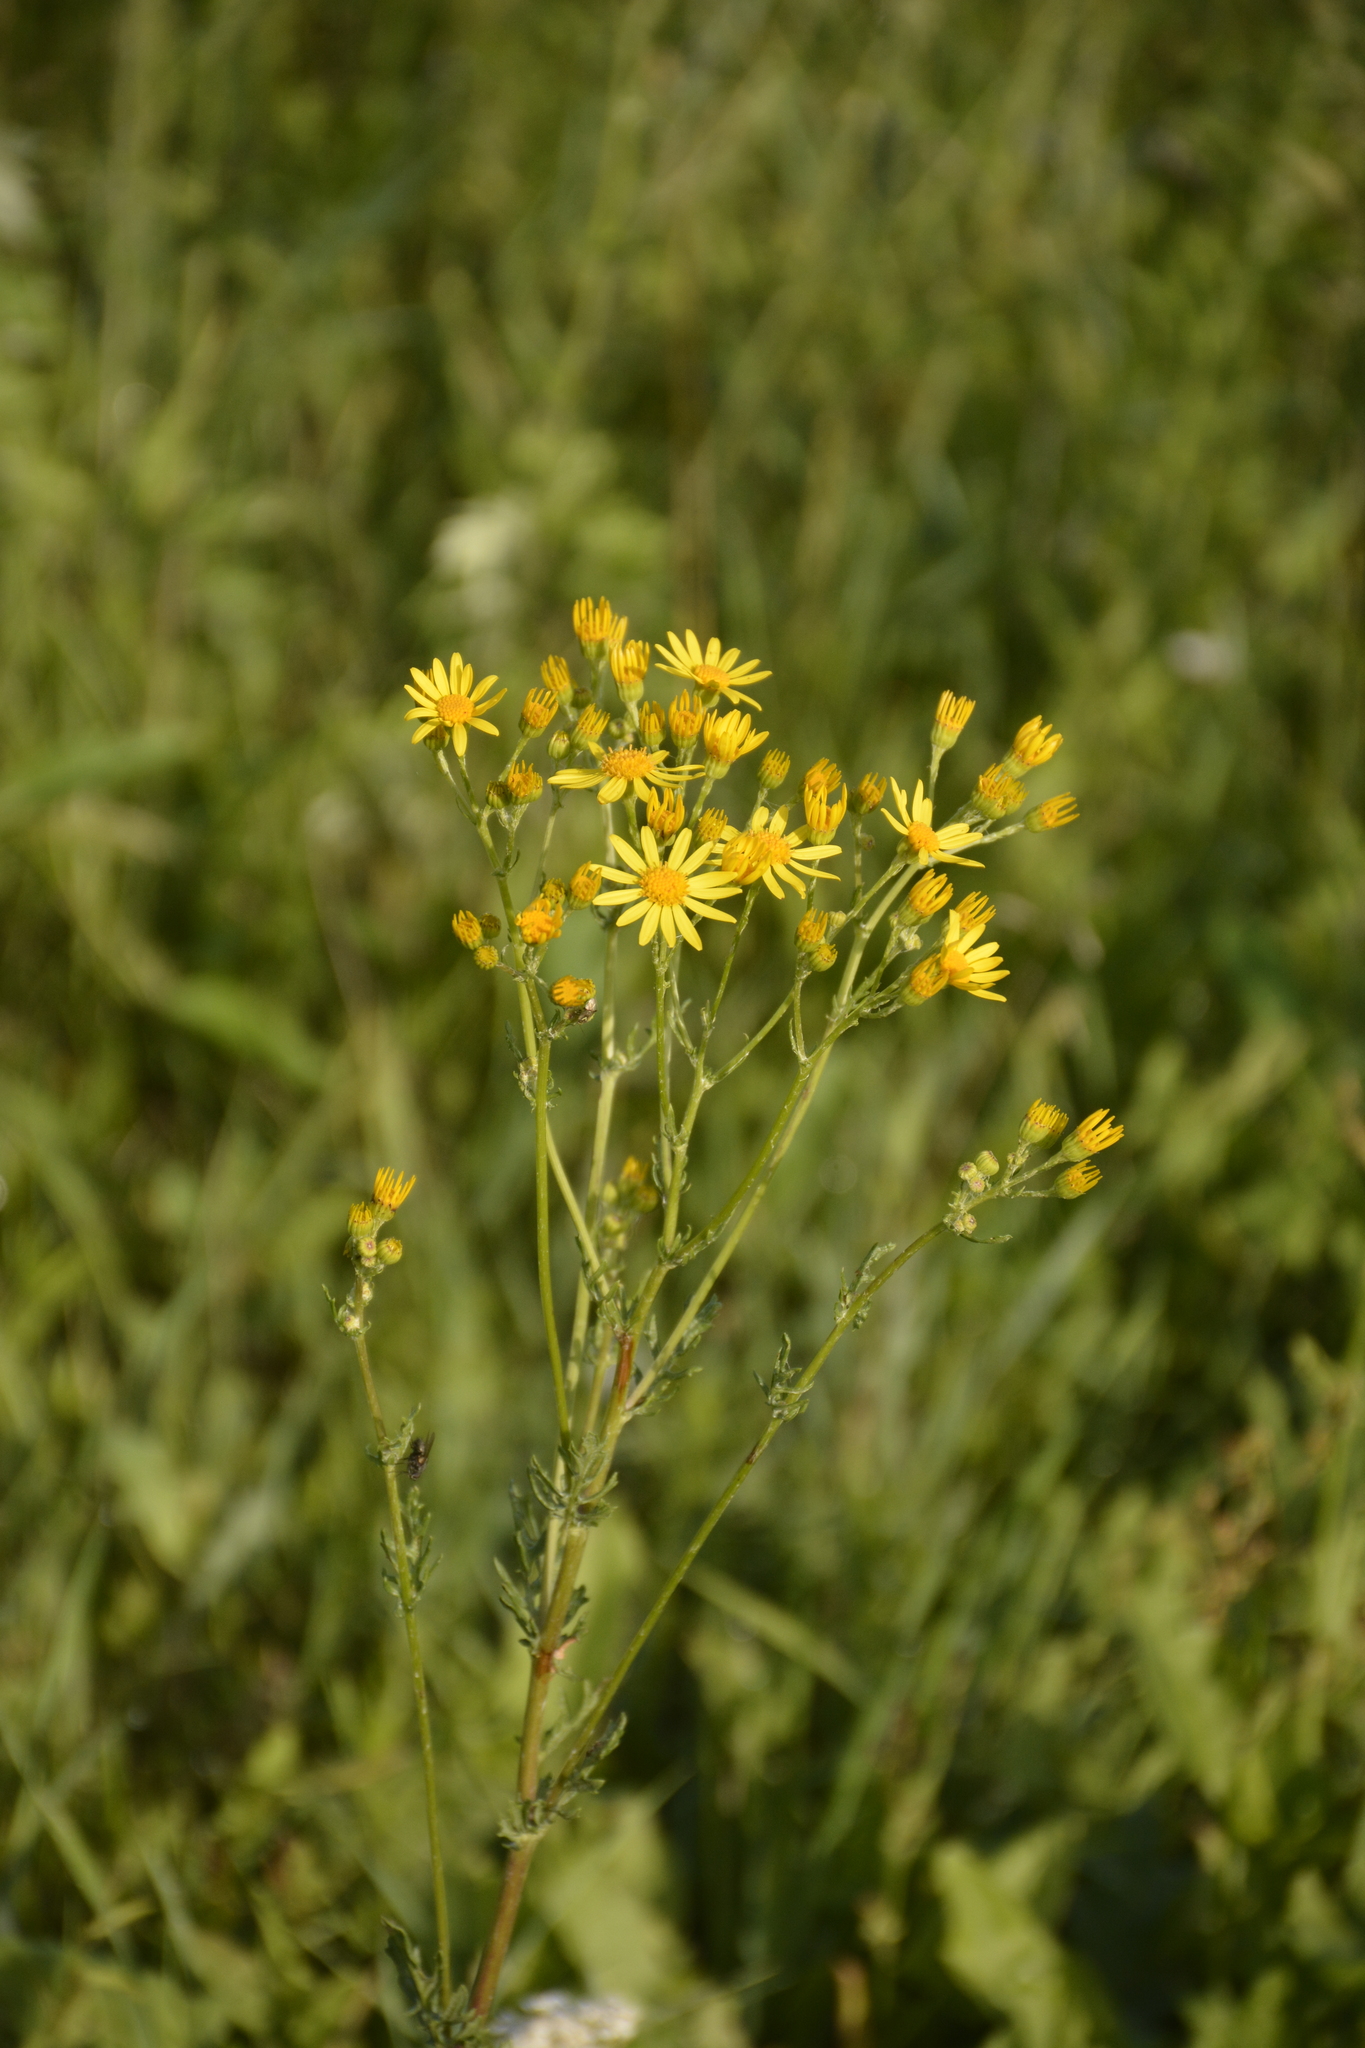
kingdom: Plantae
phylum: Tracheophyta
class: Magnoliopsida
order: Asterales
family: Asteraceae
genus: Jacobaea
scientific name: Jacobaea vulgaris
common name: Stinking willie
